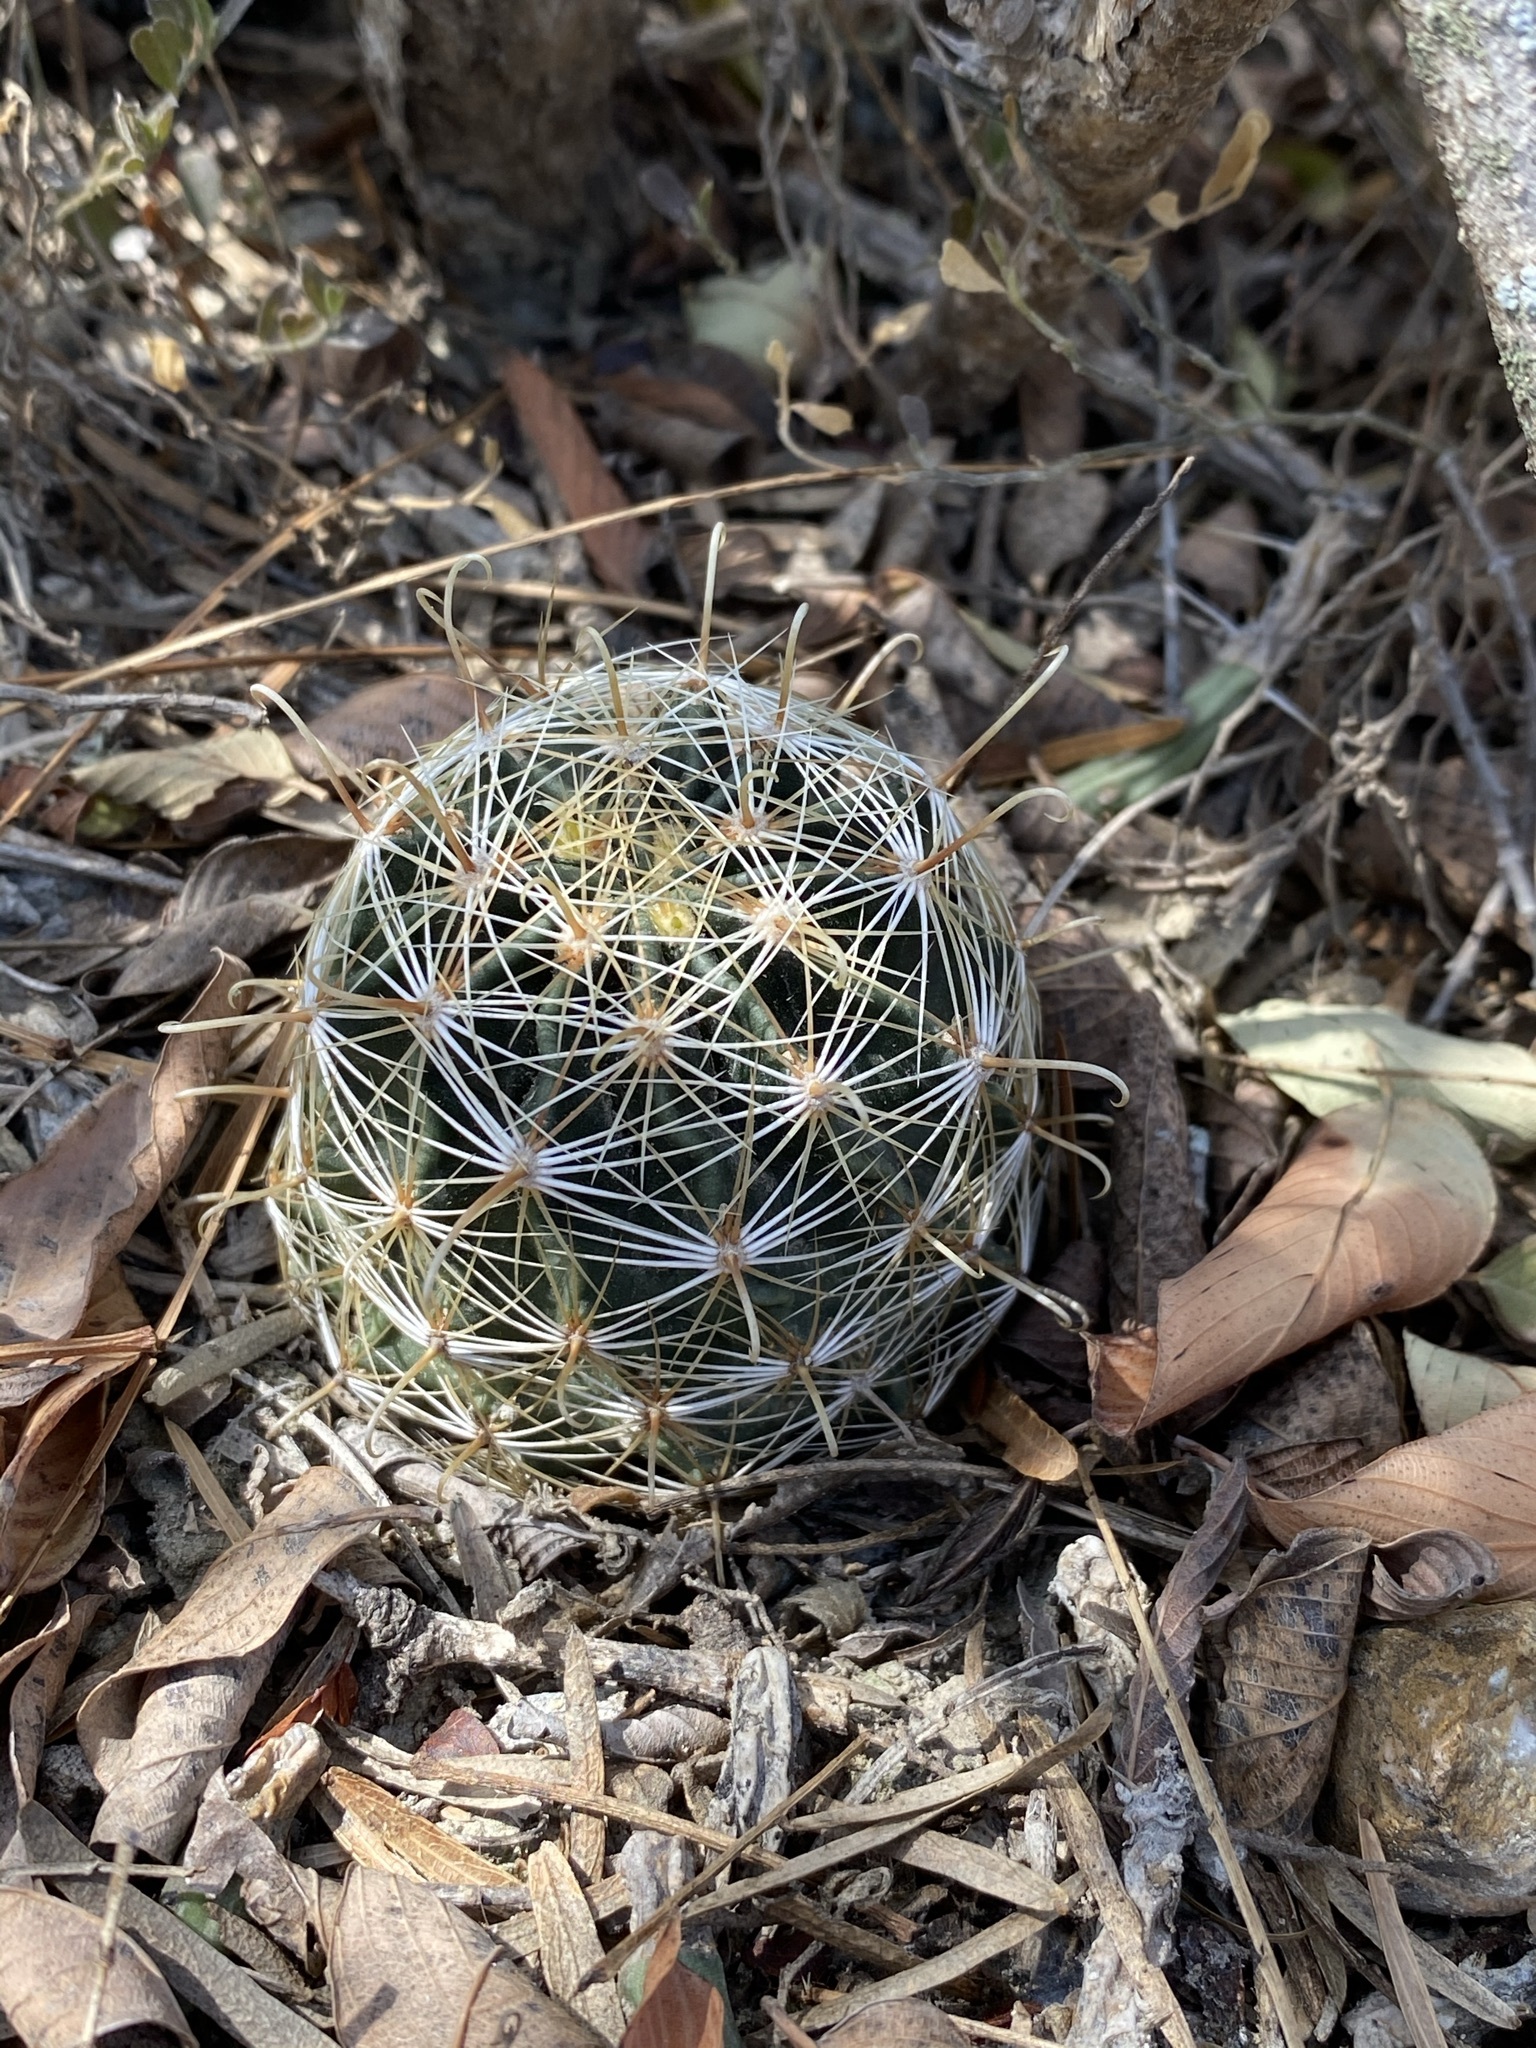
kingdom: Plantae
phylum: Tracheophyta
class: Magnoliopsida
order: Caryophyllales
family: Cactaceae
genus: Thelocactus
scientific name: Thelocactus setispinus
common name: Miniature barrel cactus
